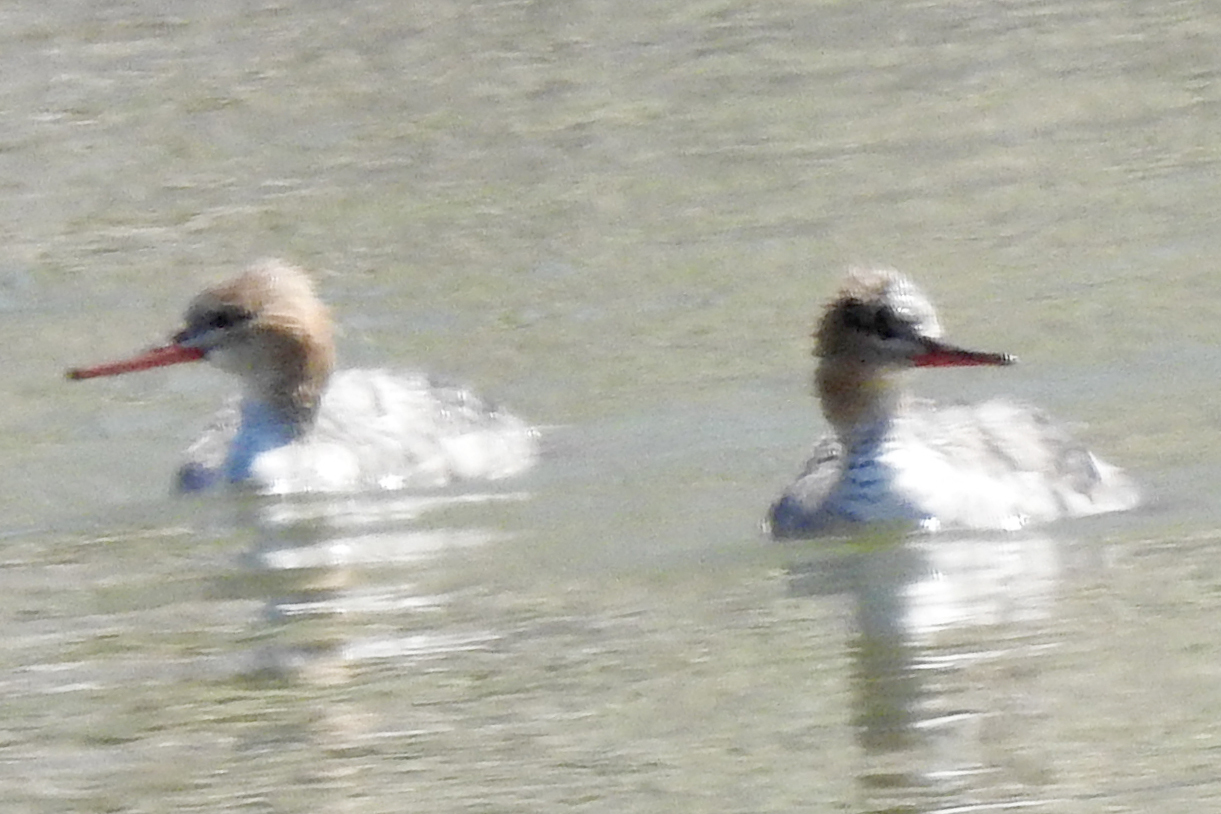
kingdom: Animalia
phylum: Chordata
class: Aves
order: Anseriformes
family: Anatidae
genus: Mergus
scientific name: Mergus serrator
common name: Red-breasted merganser
